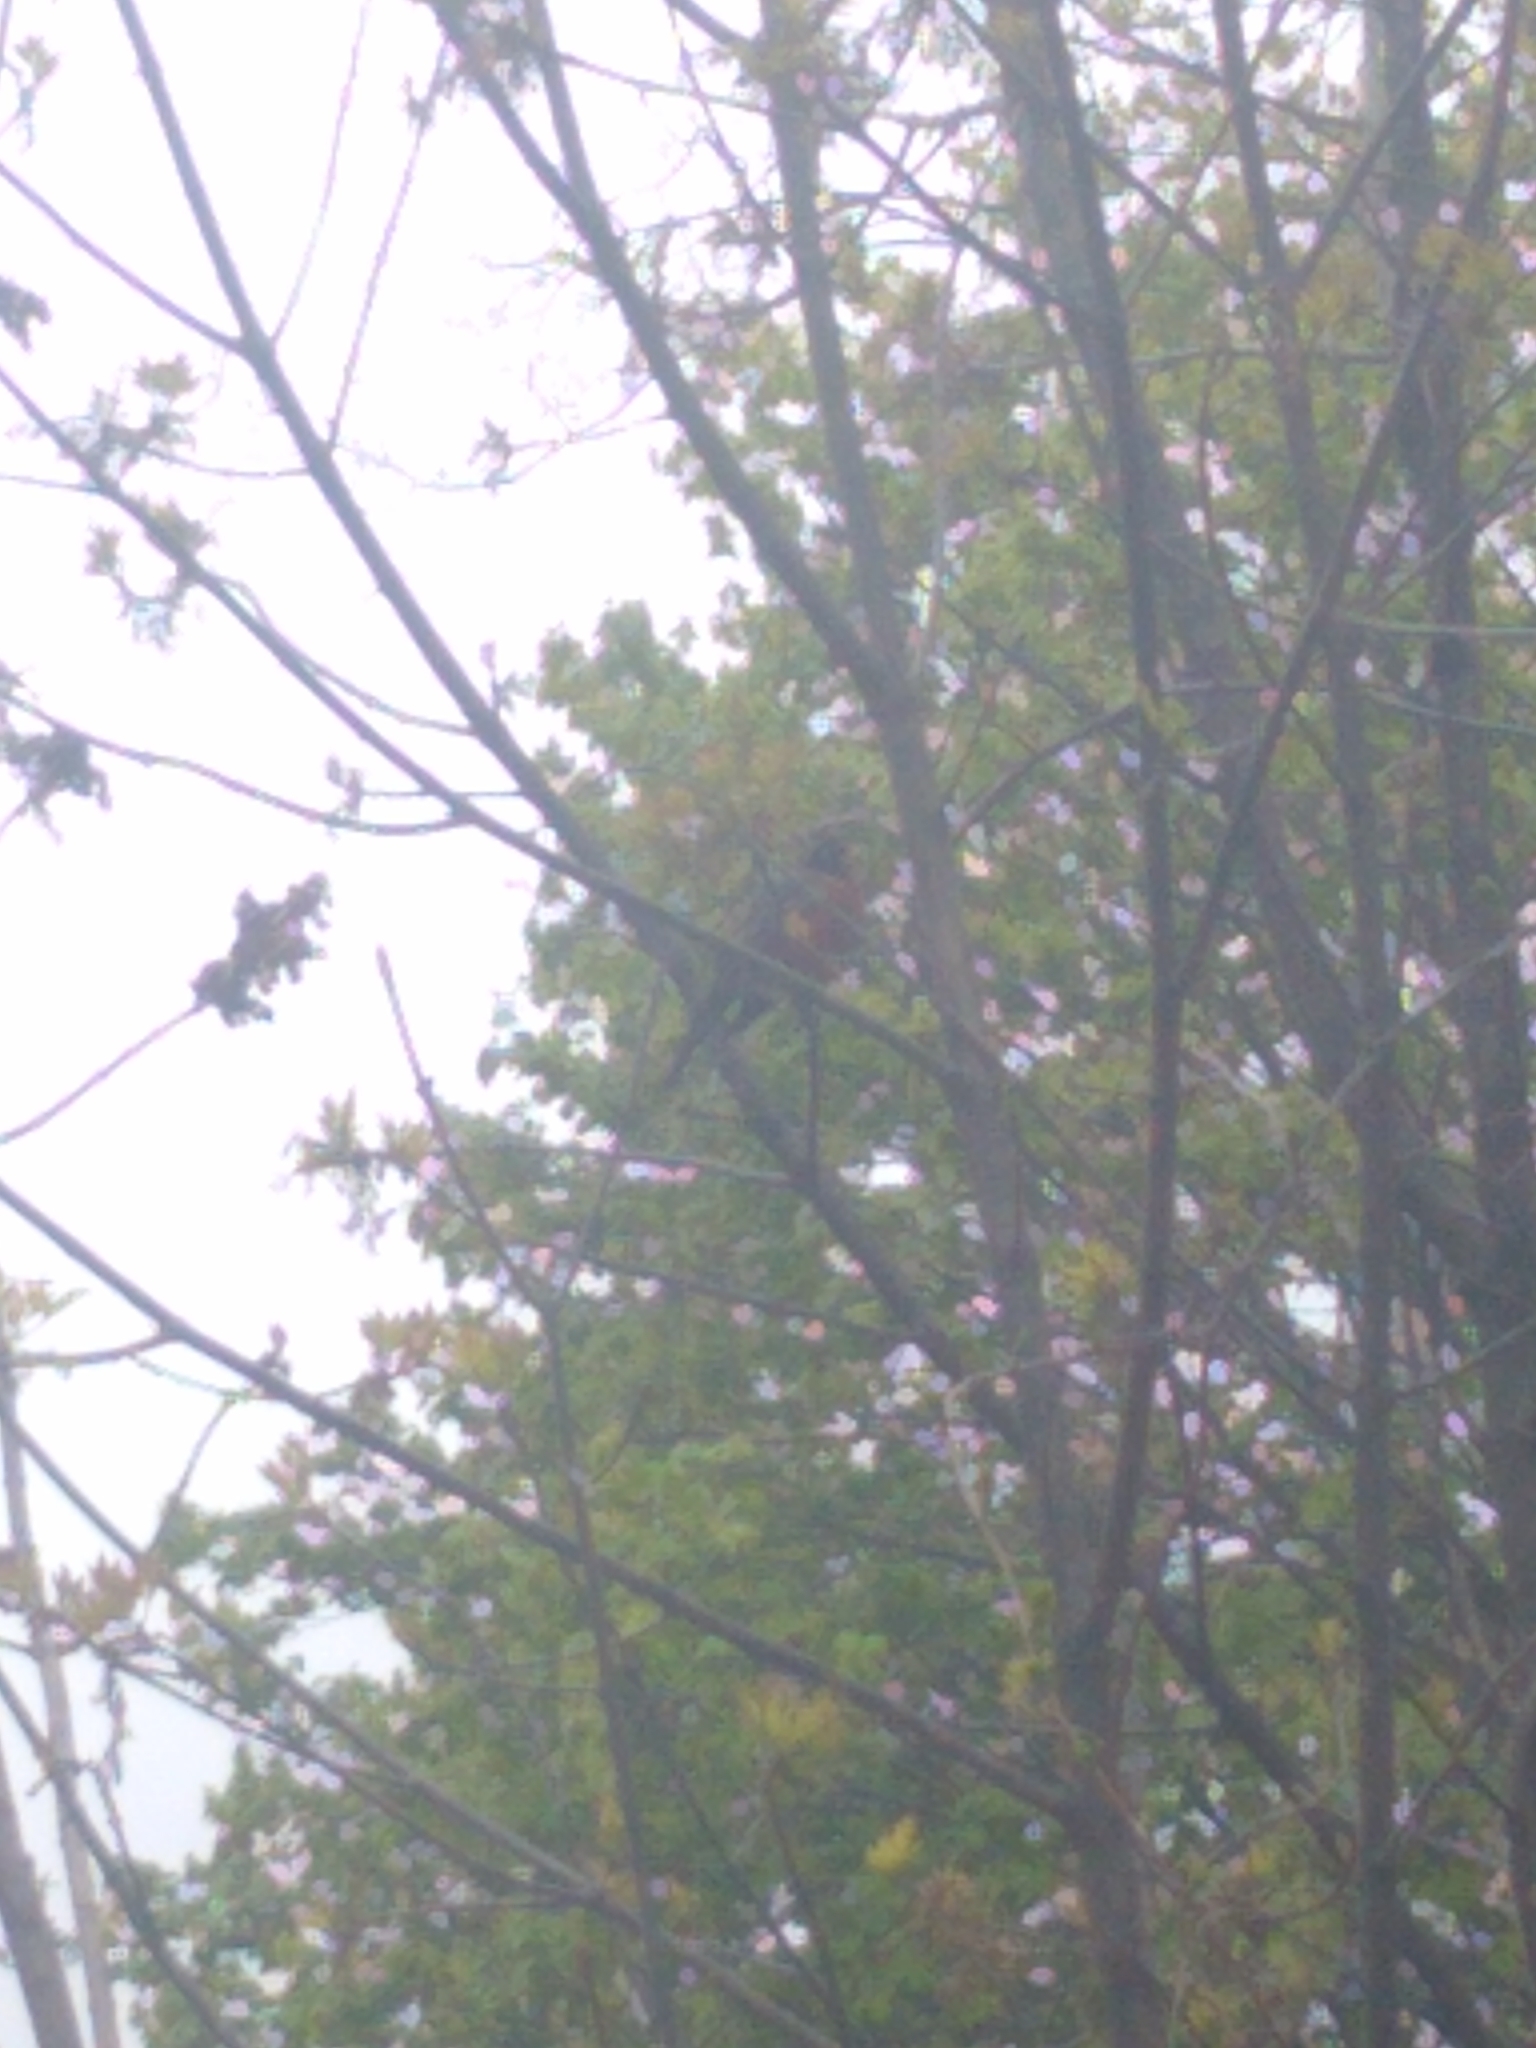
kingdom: Animalia
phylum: Chordata
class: Aves
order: Passeriformes
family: Turdidae
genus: Turdus
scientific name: Turdus migratorius
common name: American robin
